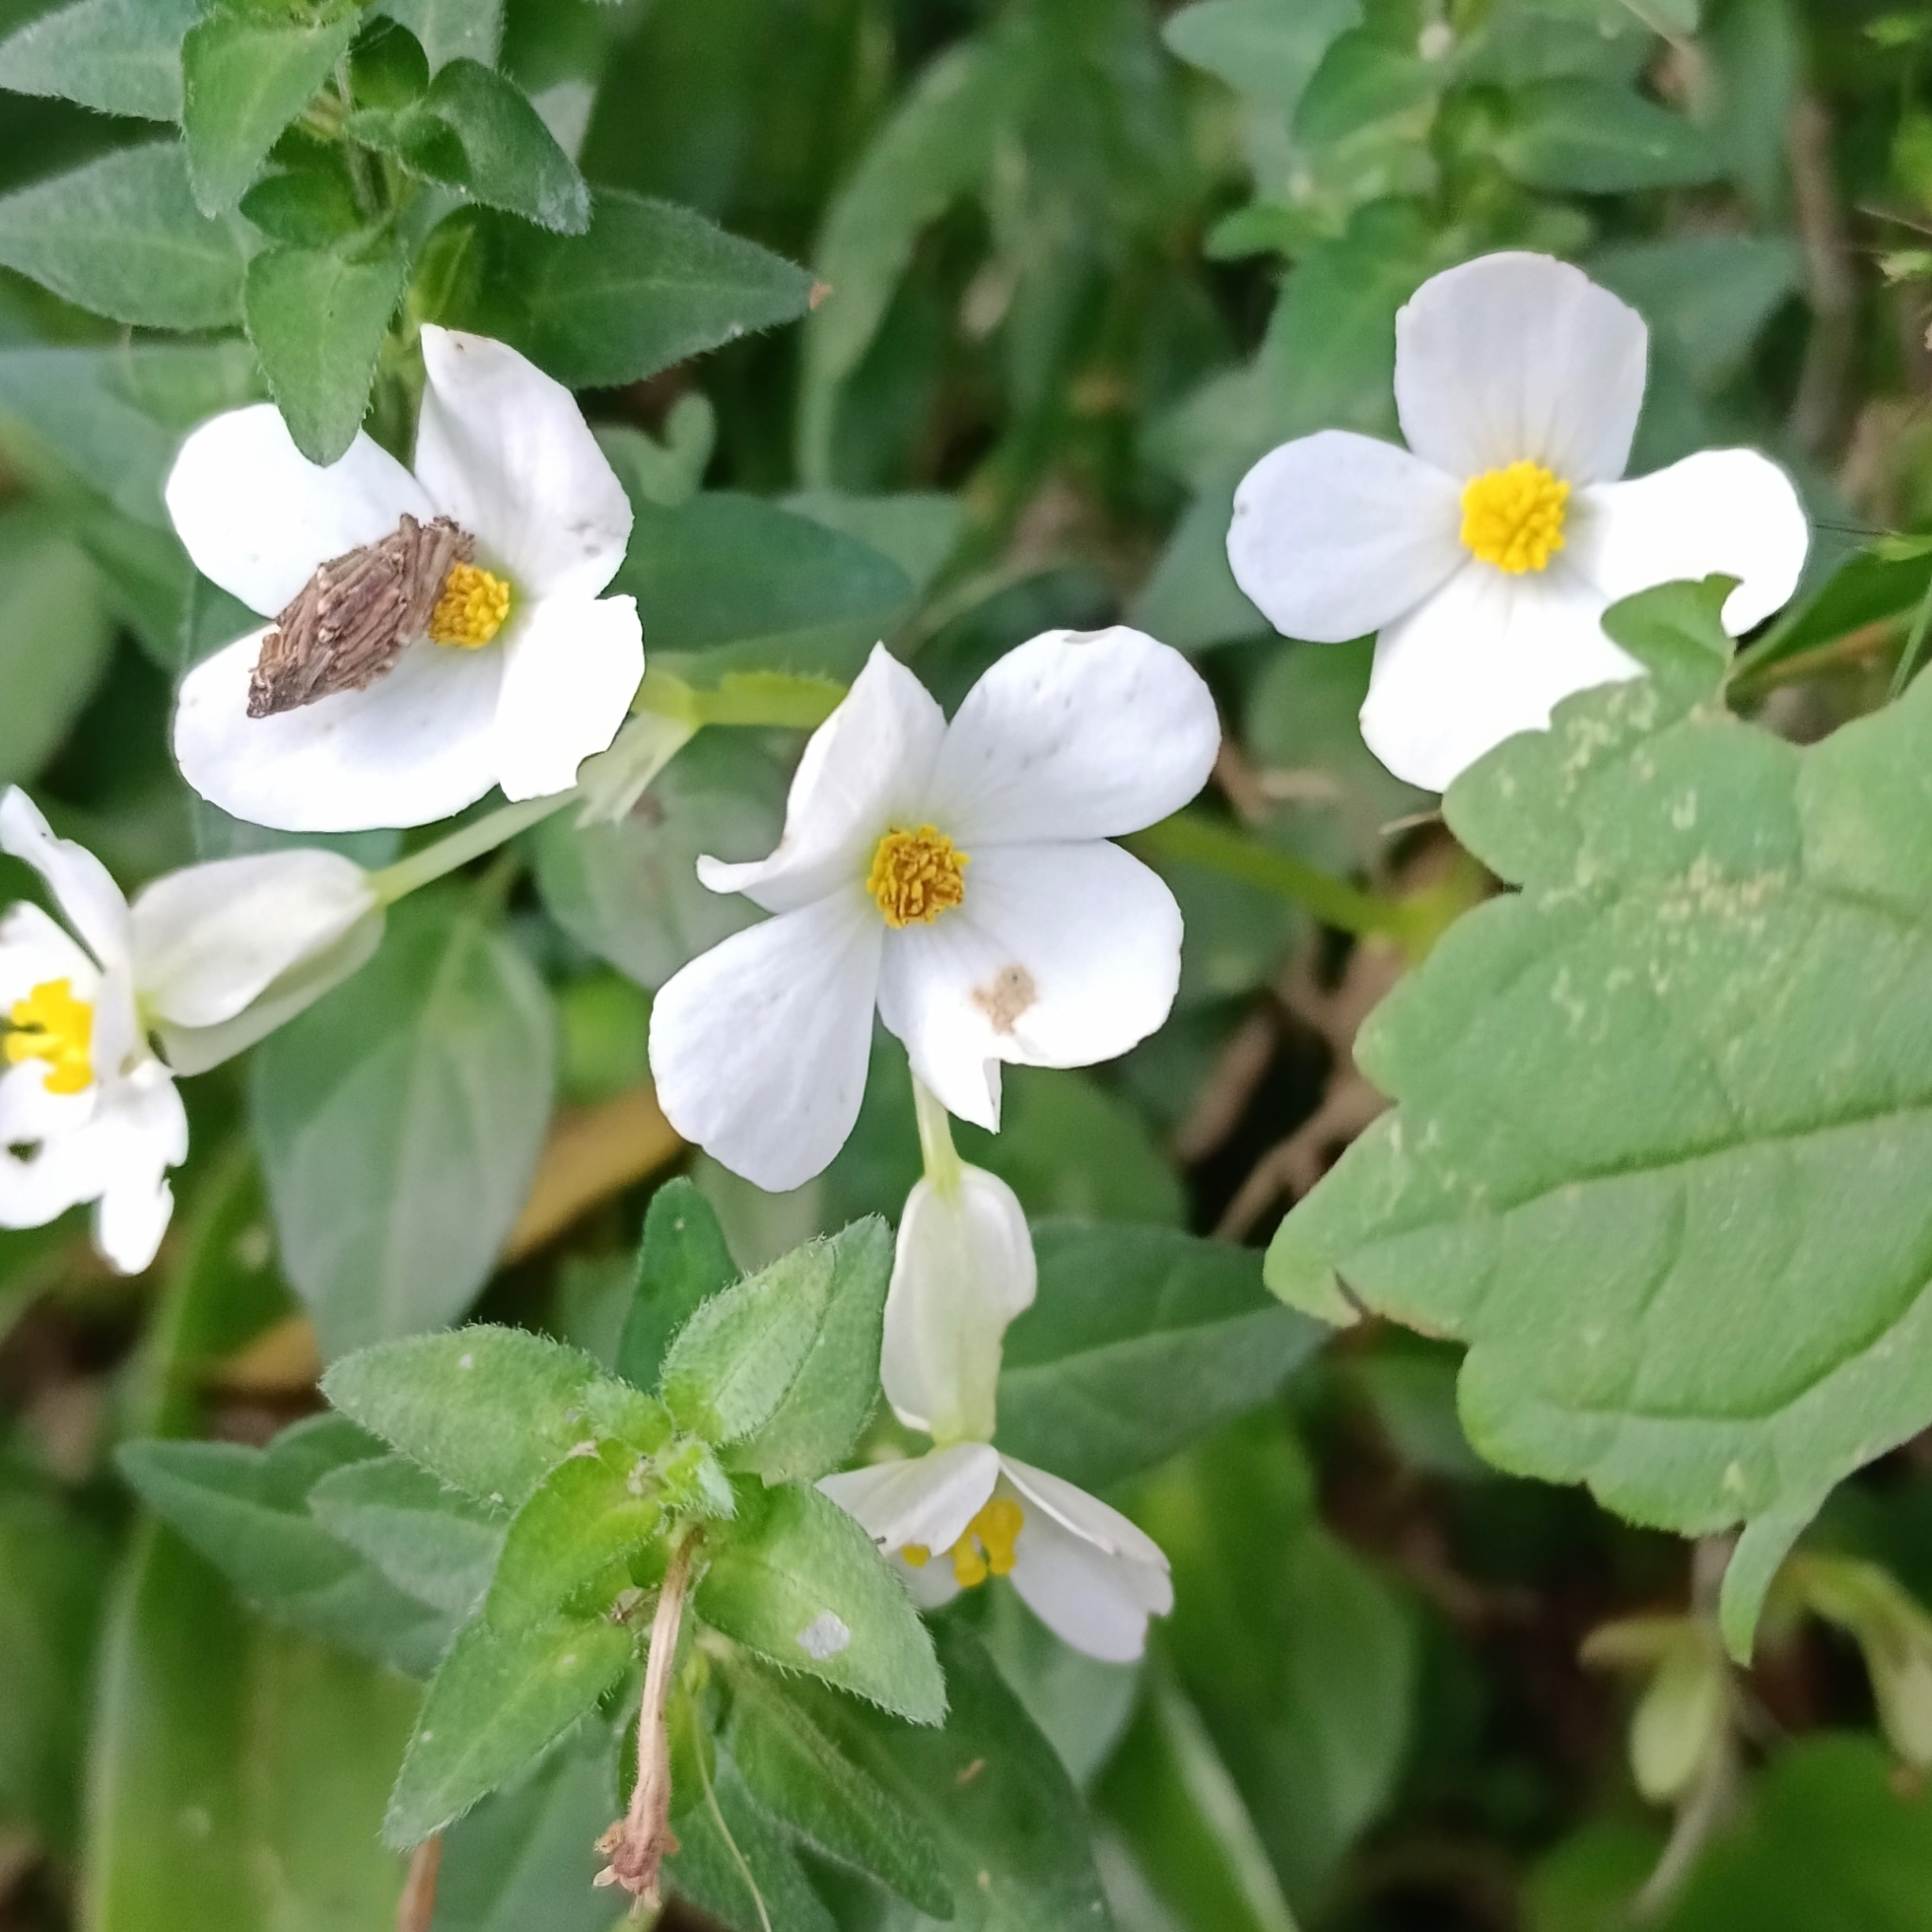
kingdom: Plantae
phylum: Tracheophyta
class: Magnoliopsida
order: Cucurbitales
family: Begoniaceae
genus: Begonia
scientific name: Begonia
